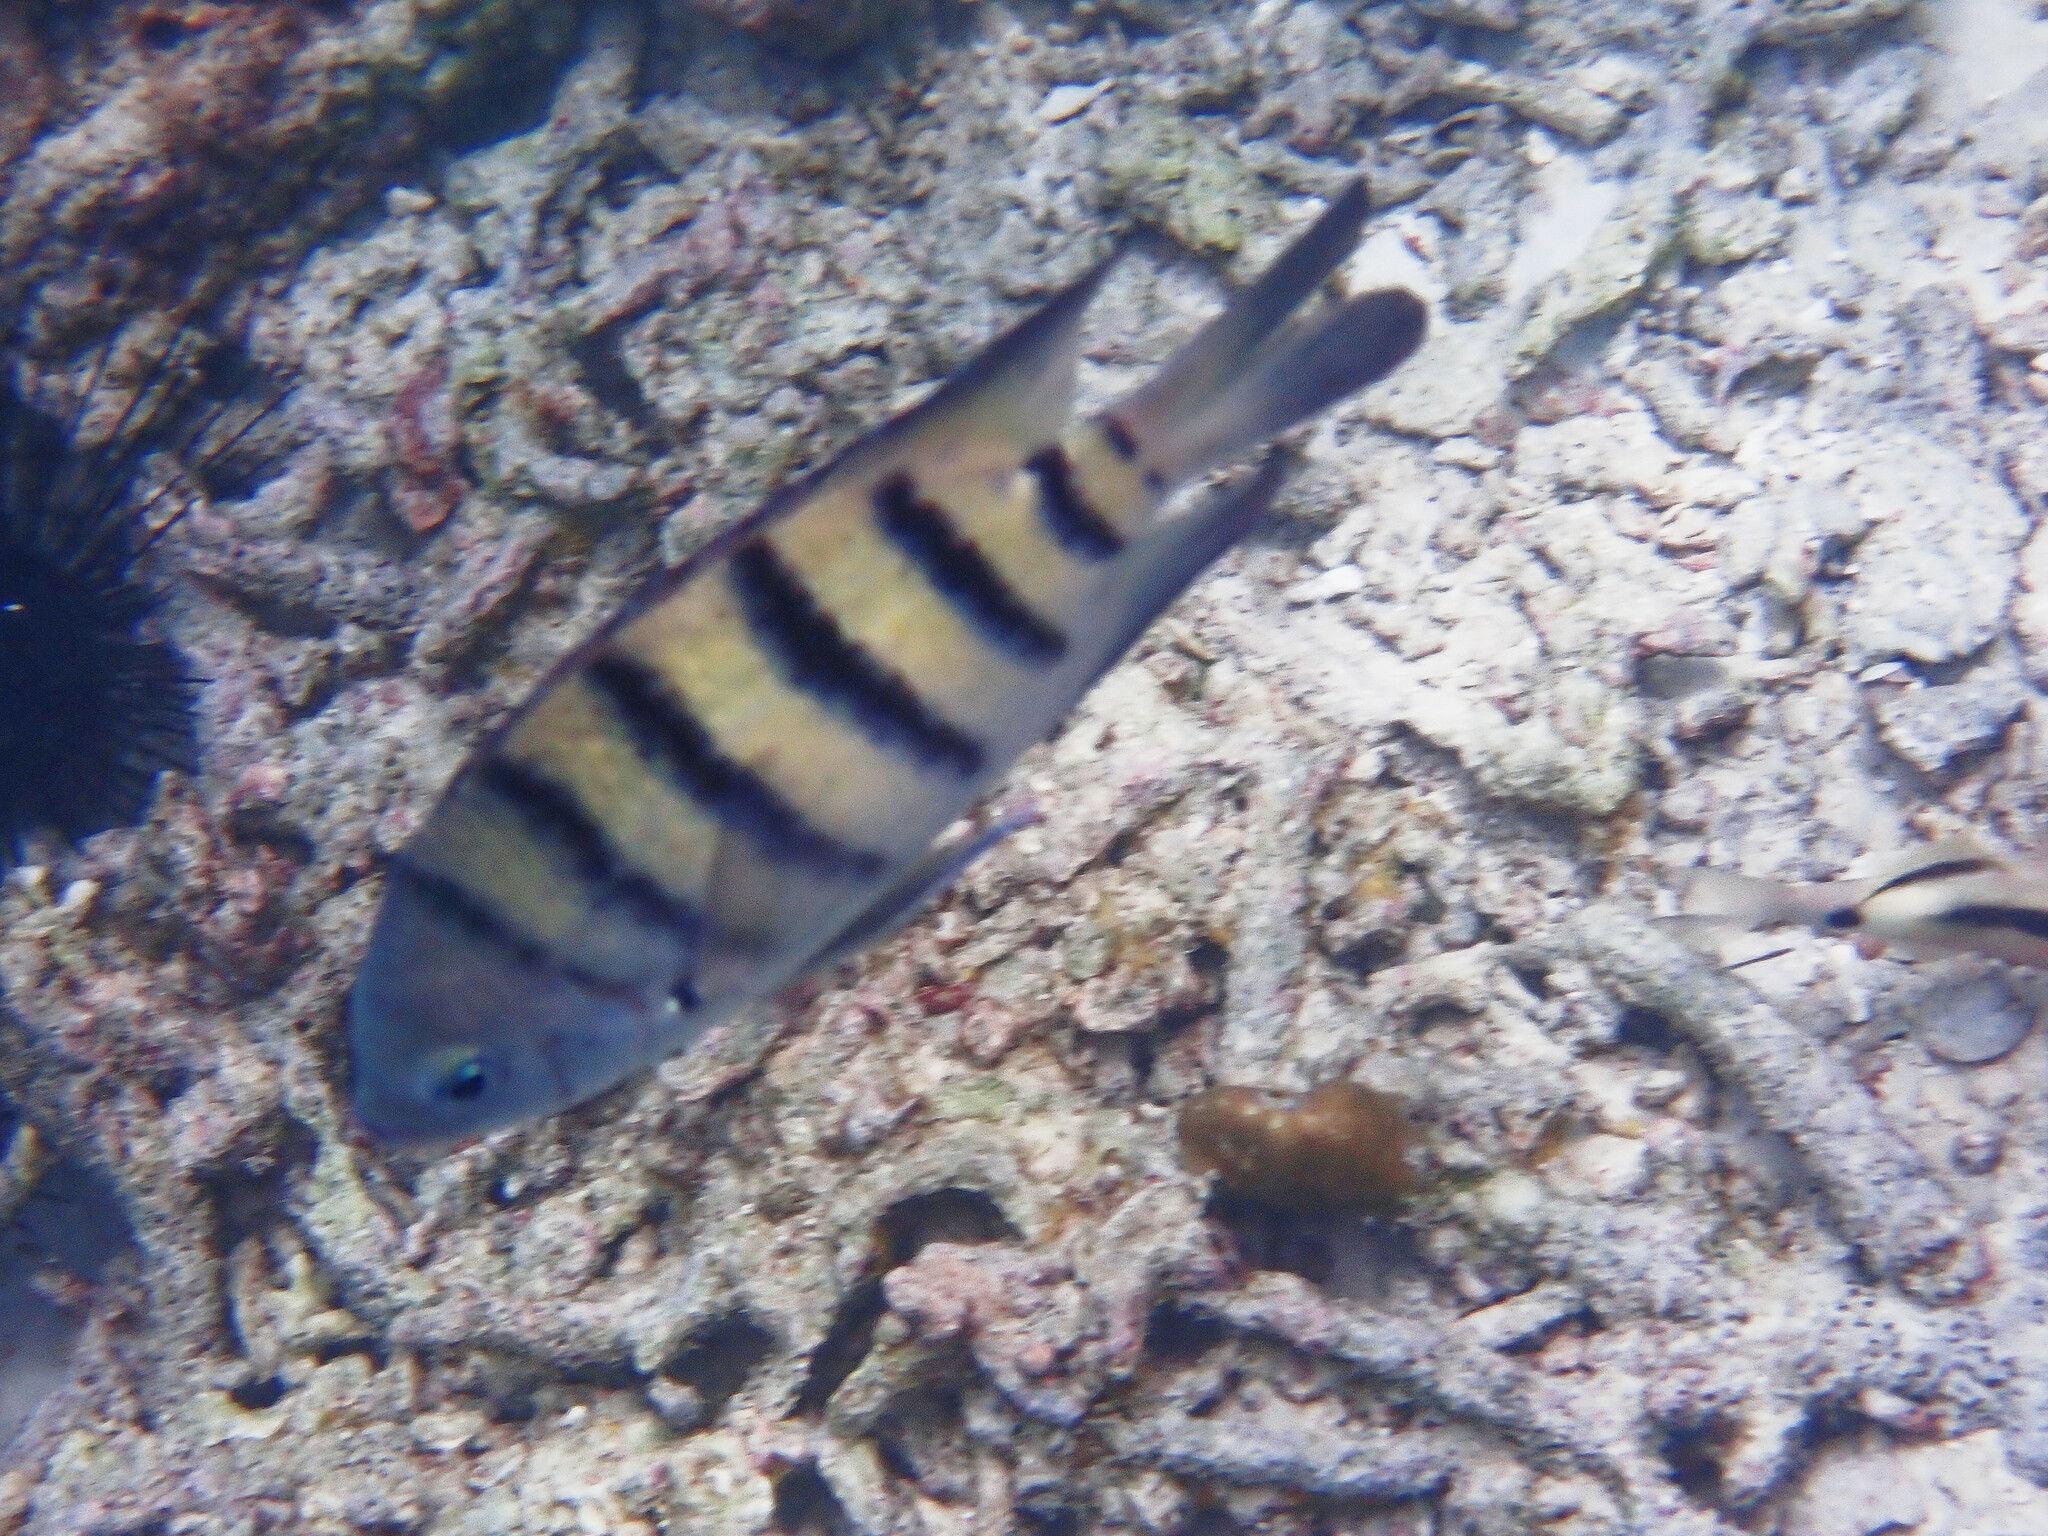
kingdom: Animalia
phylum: Chordata
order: Perciformes
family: Pomacentridae
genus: Abudefduf
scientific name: Abudefduf bengalensis
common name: Bengal sergeant
